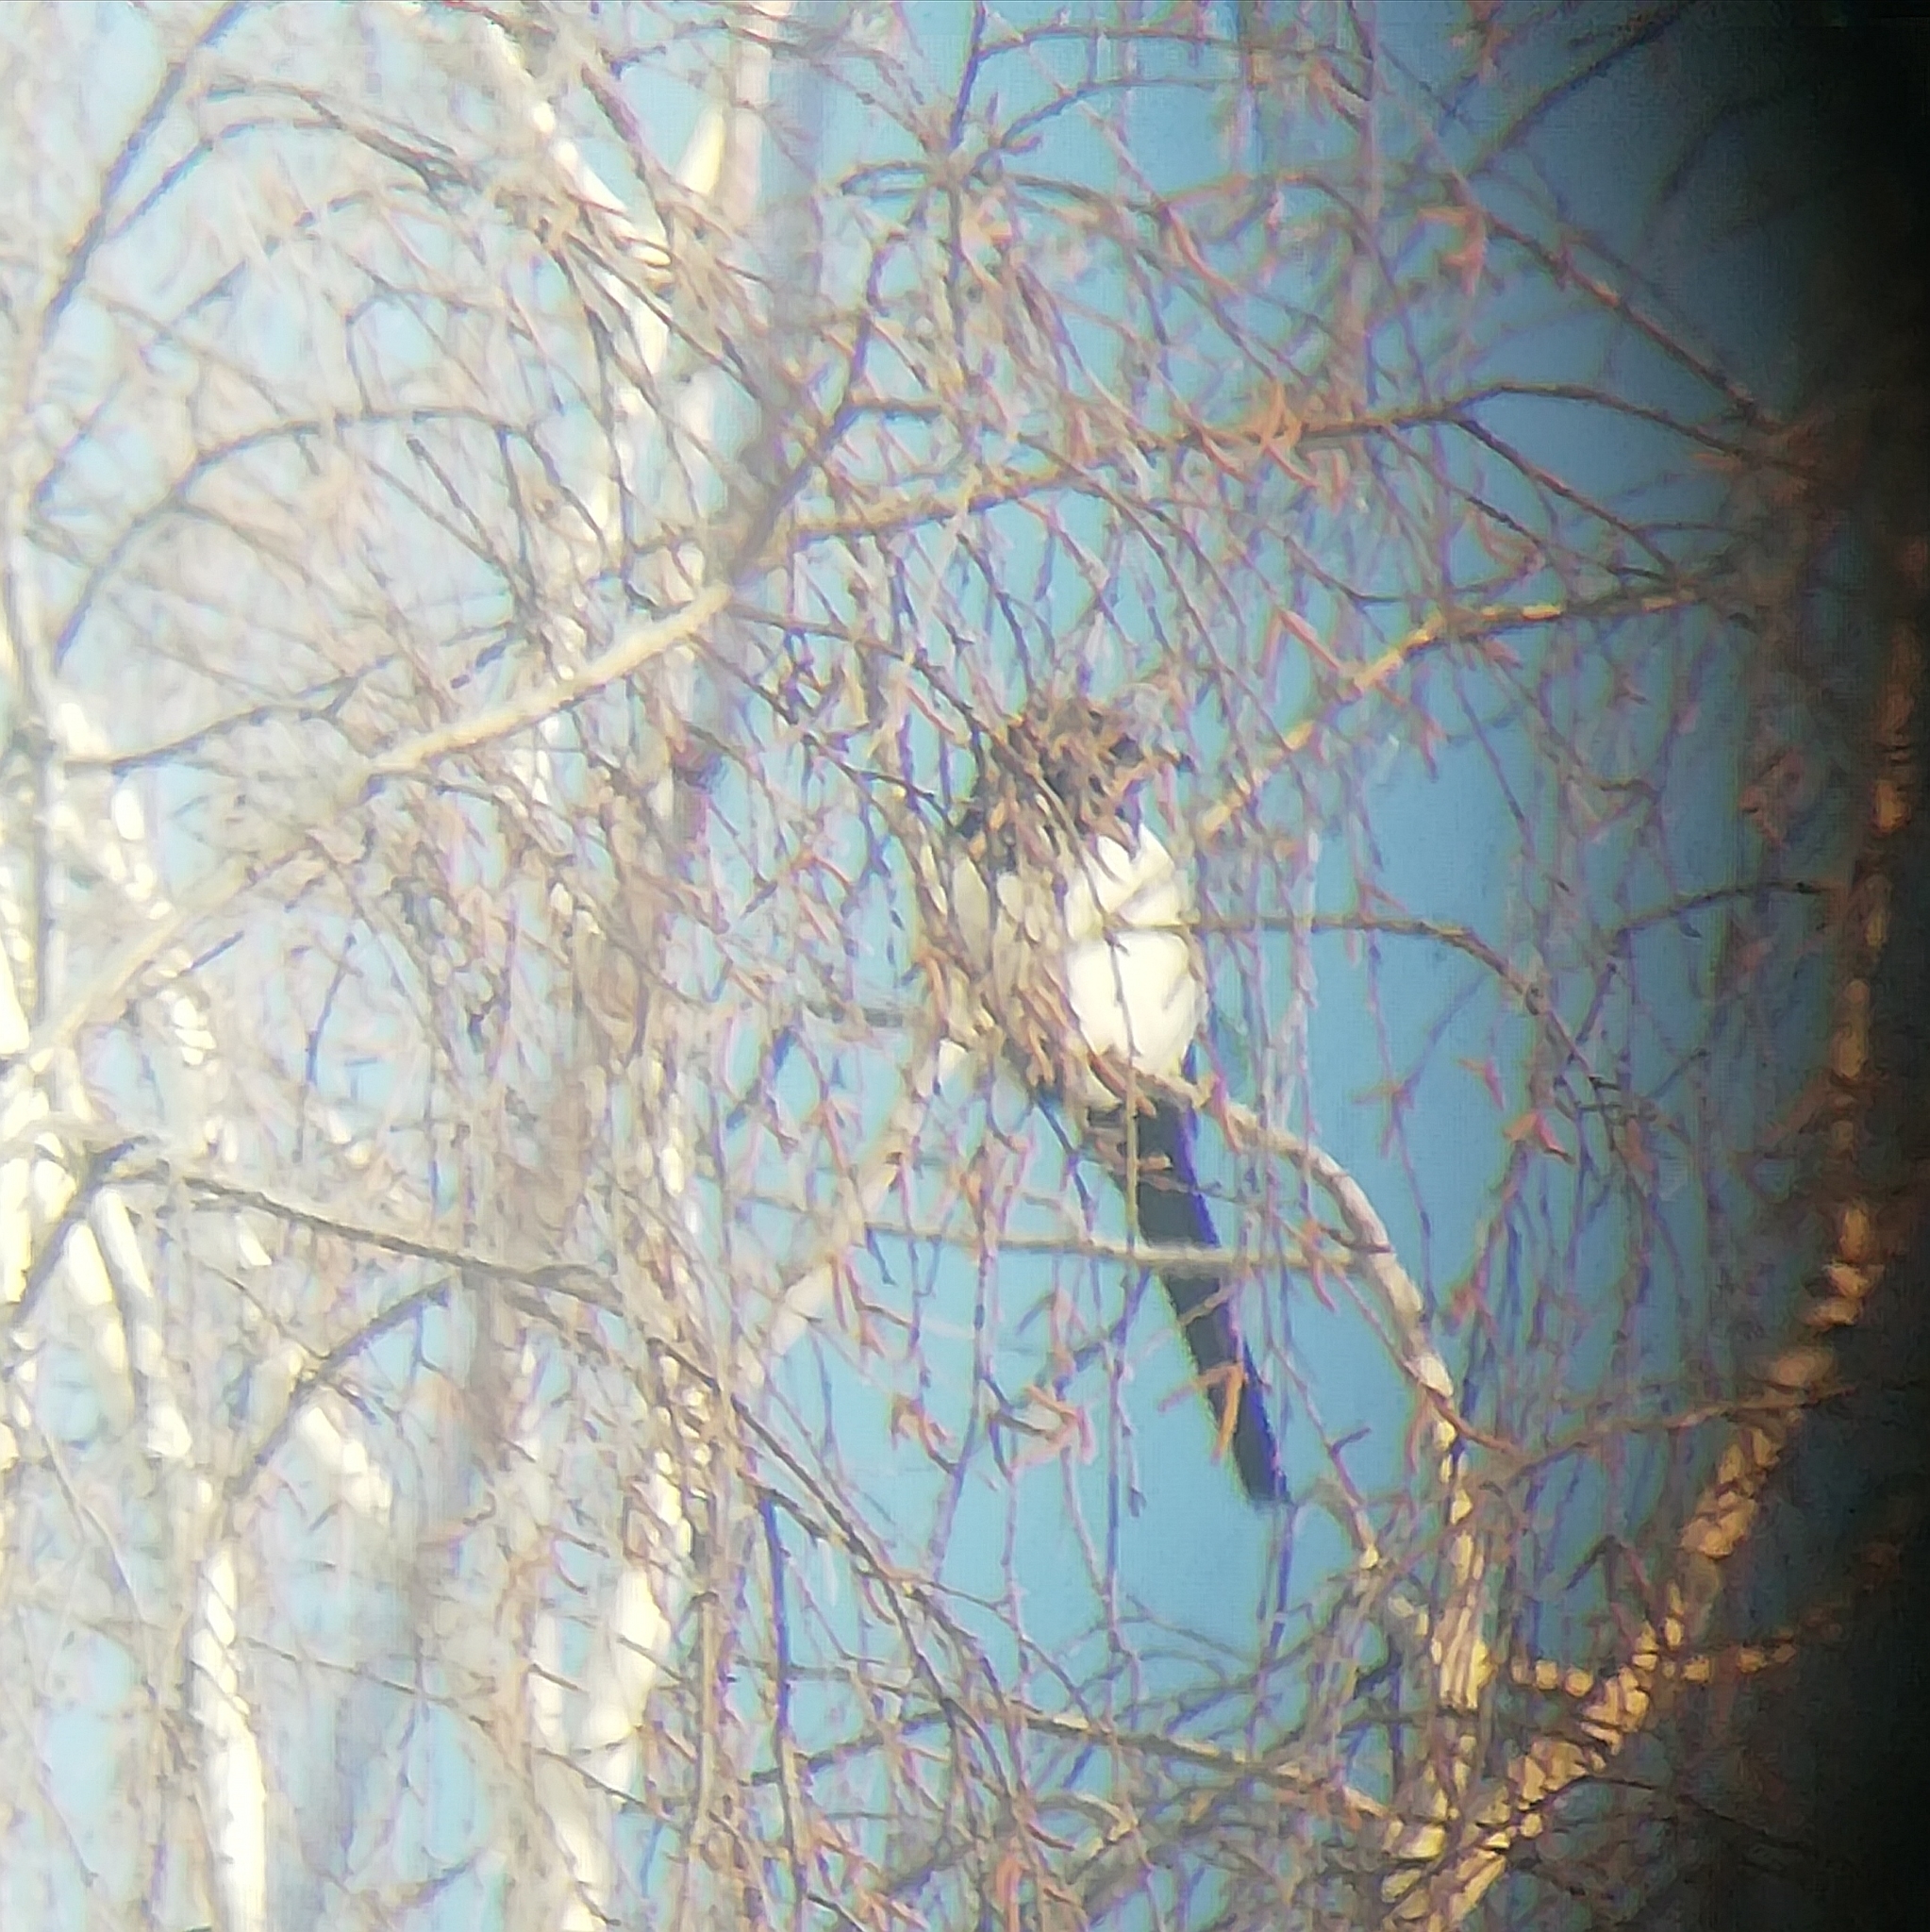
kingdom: Animalia
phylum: Chordata
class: Aves
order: Passeriformes
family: Corvidae
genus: Pica
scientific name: Pica pica
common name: Eurasian magpie
